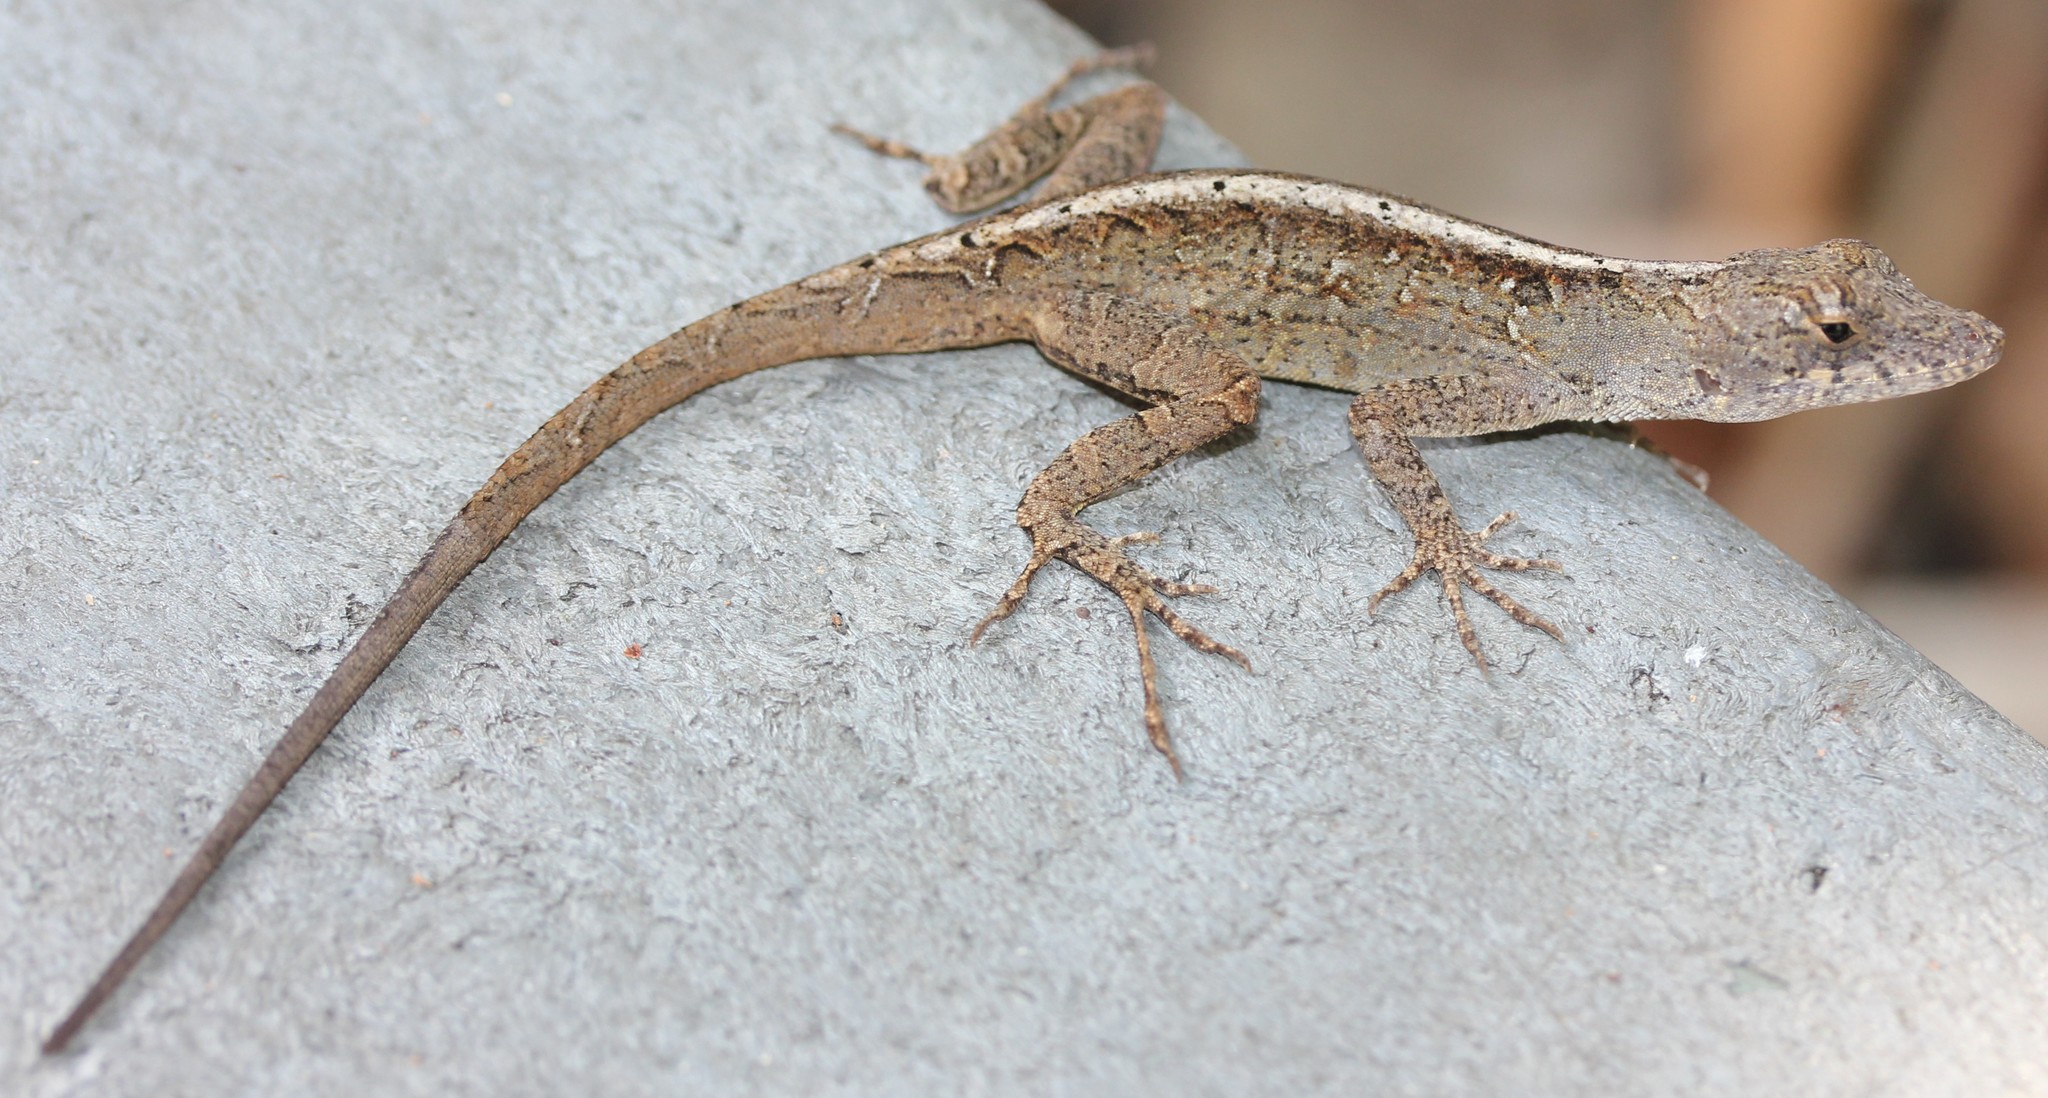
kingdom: Animalia
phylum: Chordata
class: Squamata
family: Dactyloidae
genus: Anolis
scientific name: Anolis sagrei
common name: Brown anole
